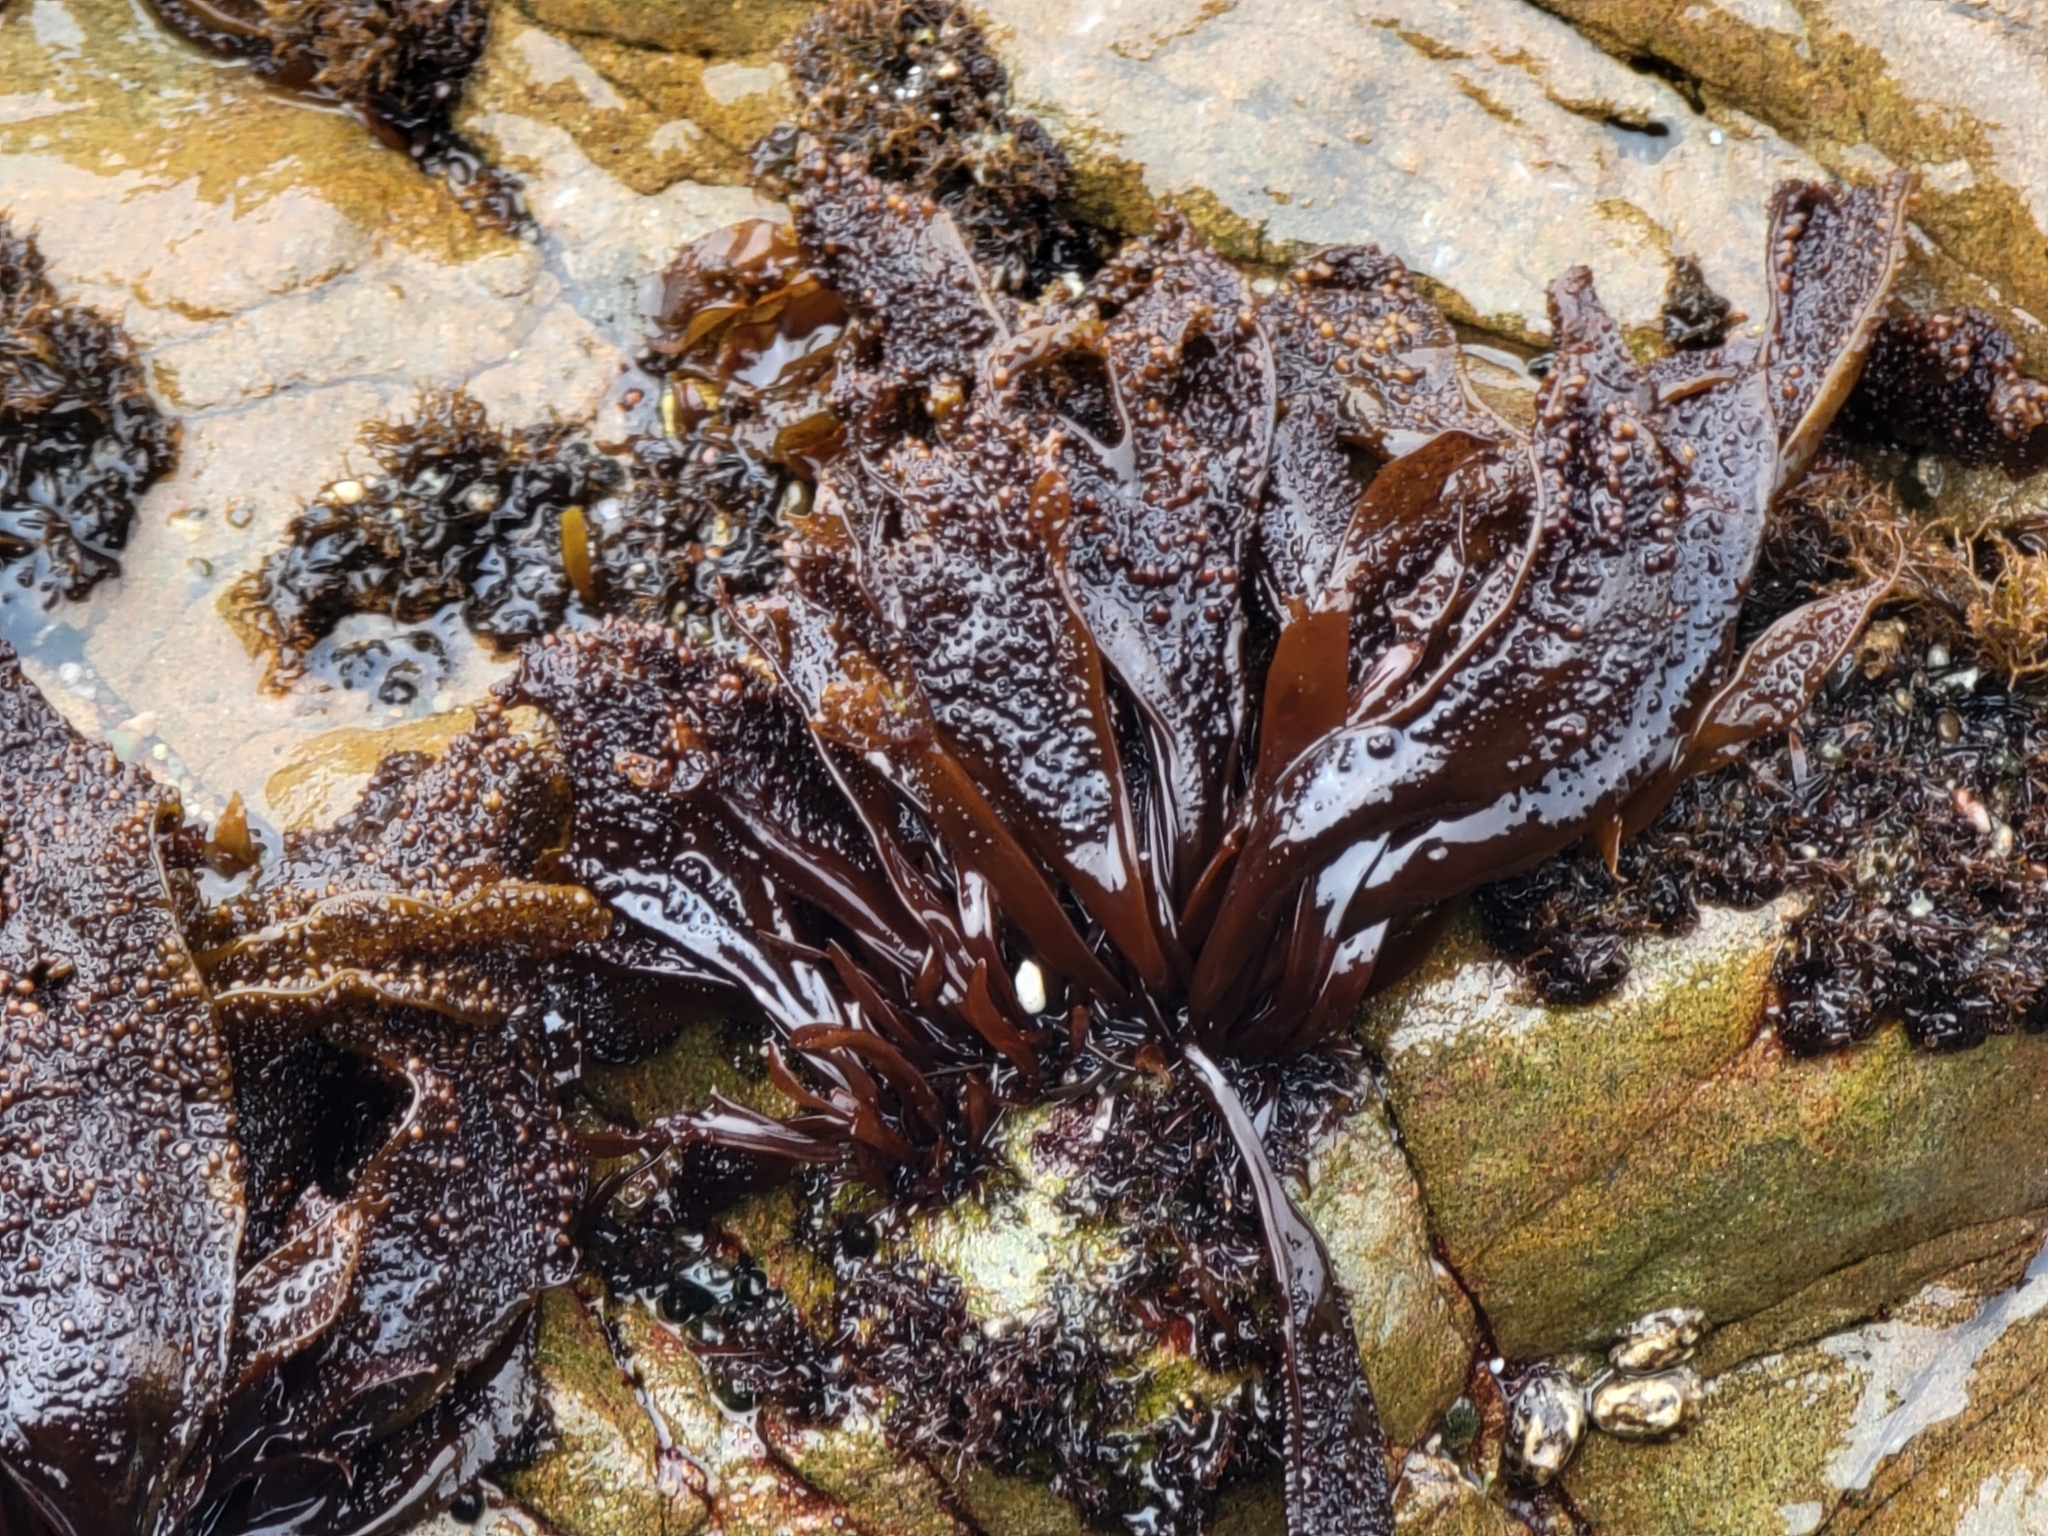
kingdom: Plantae
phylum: Rhodophyta
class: Florideophyceae
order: Gigartinales
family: Phyllophoraceae
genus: Mastocarpus
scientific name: Mastocarpus papillatus
